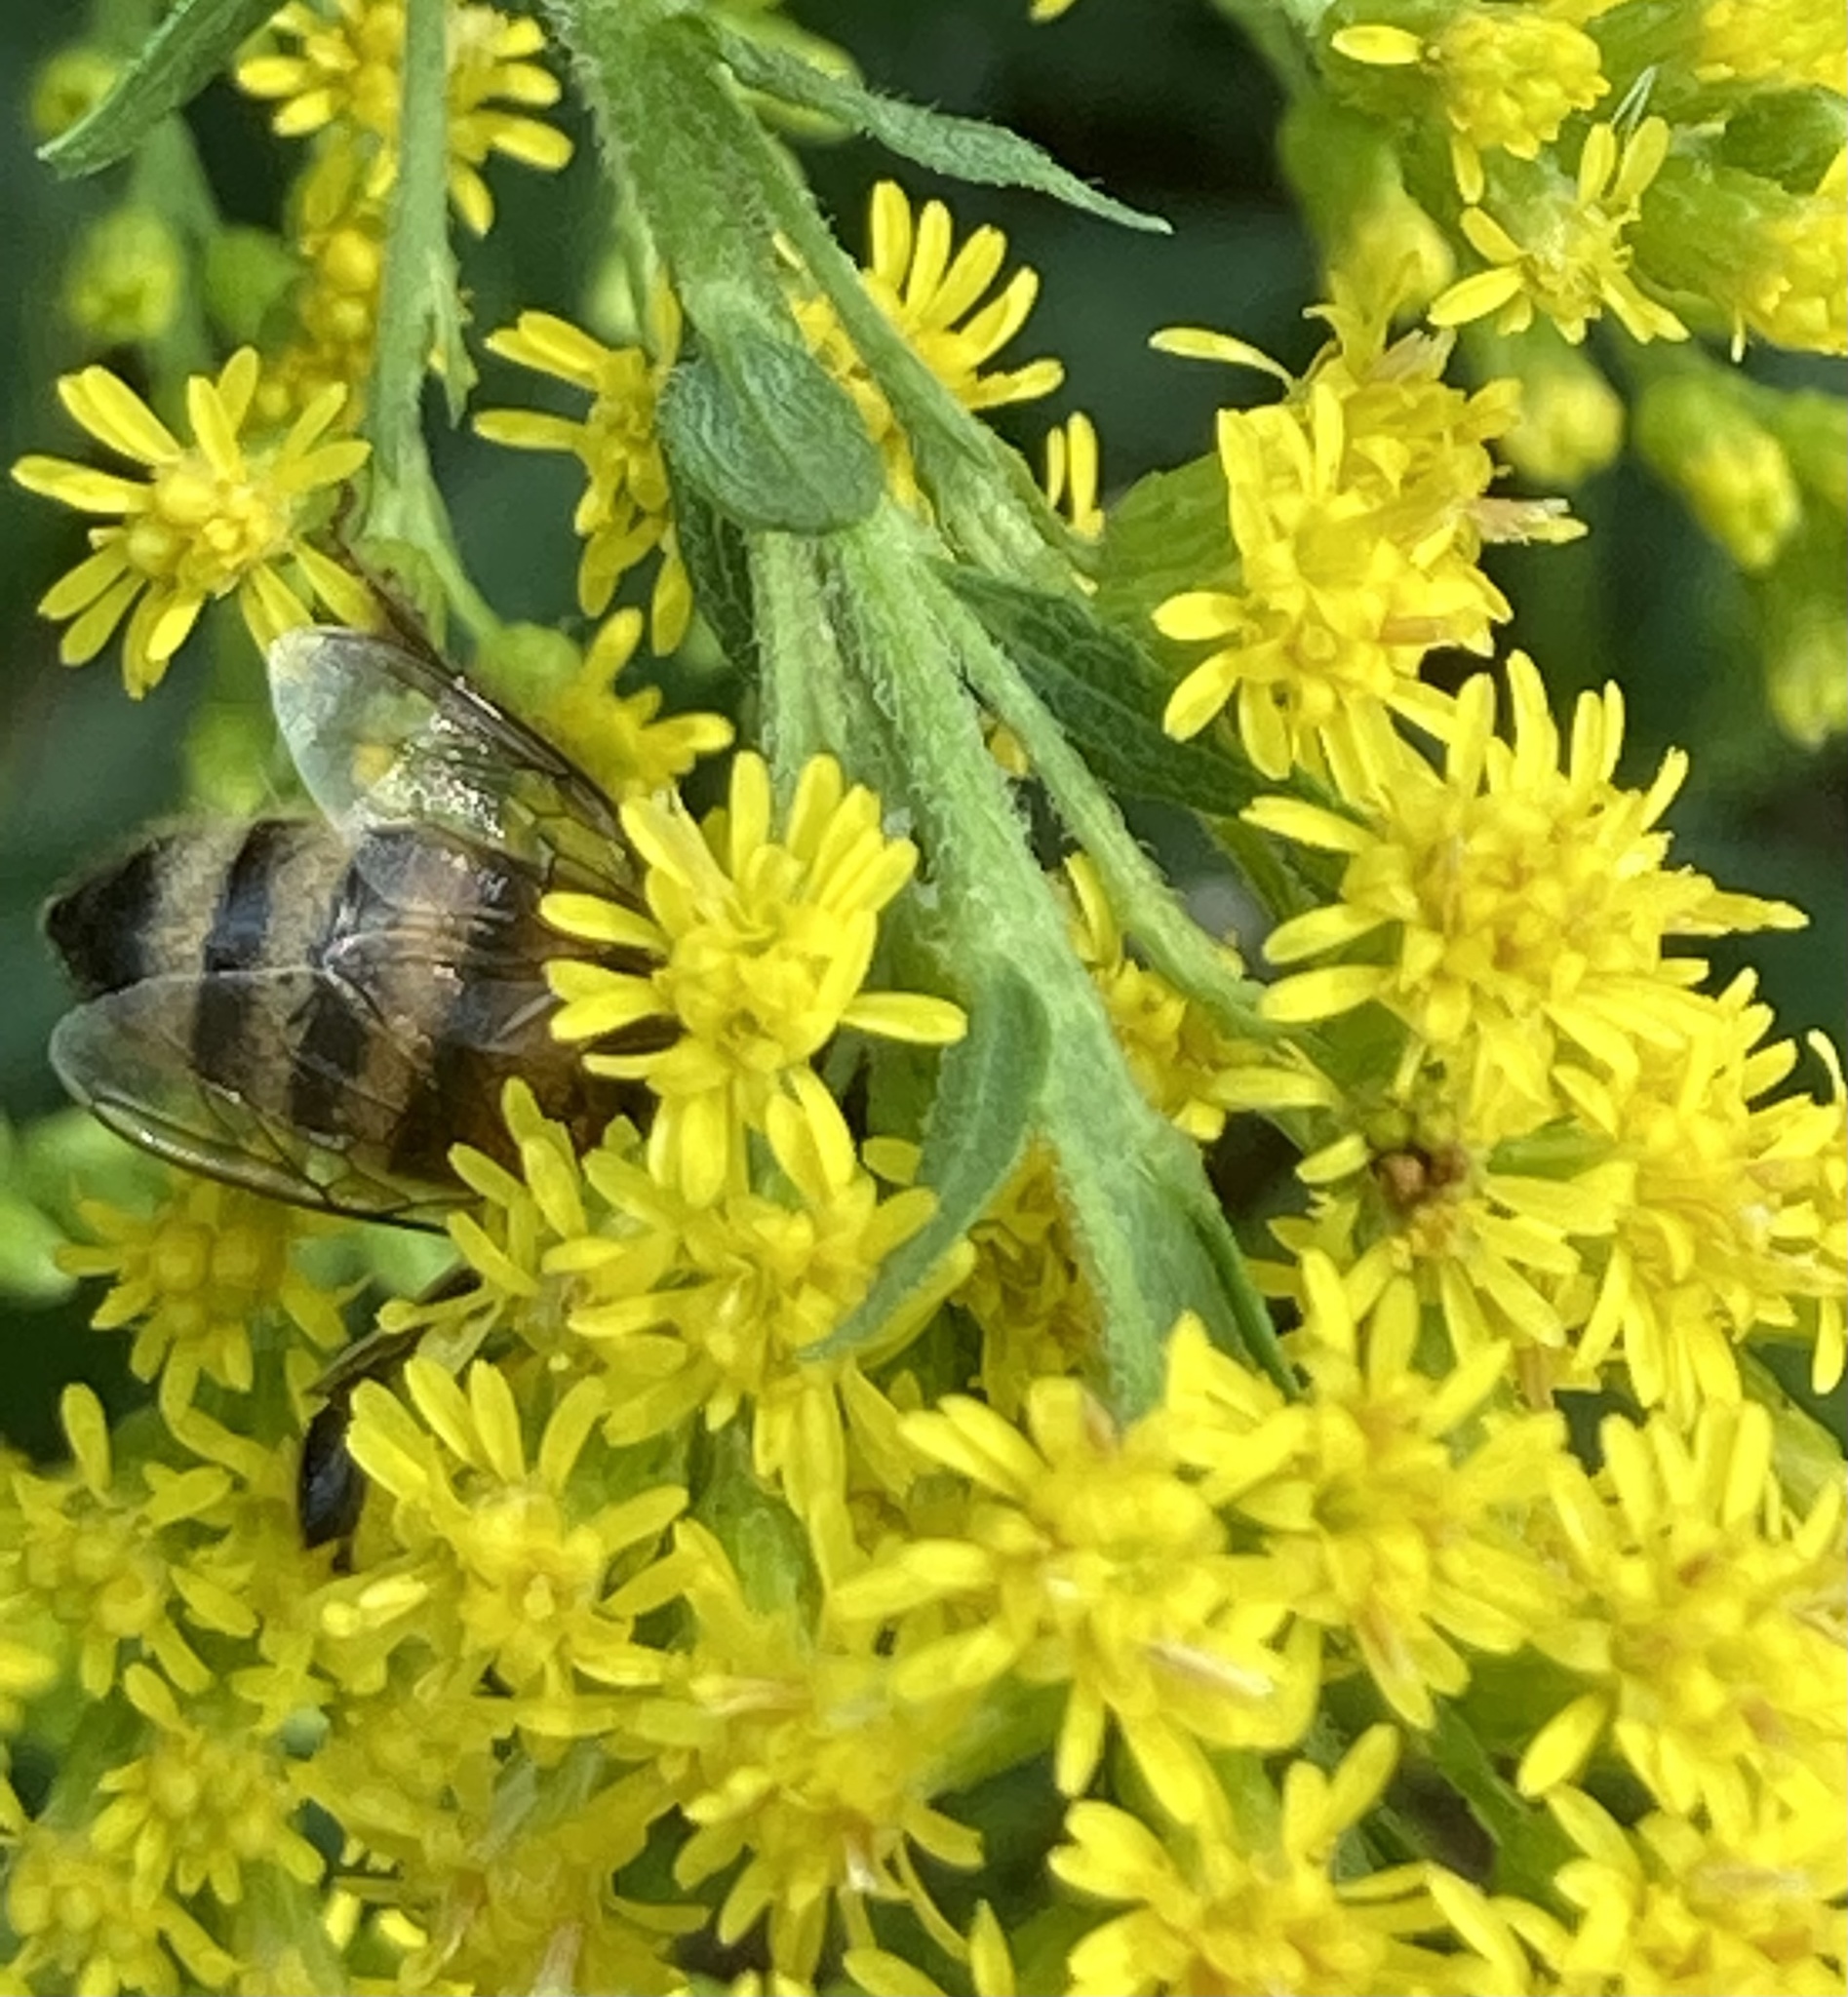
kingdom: Animalia
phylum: Arthropoda
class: Insecta
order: Hymenoptera
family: Apidae
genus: Apis
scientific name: Apis mellifera
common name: Honey bee
